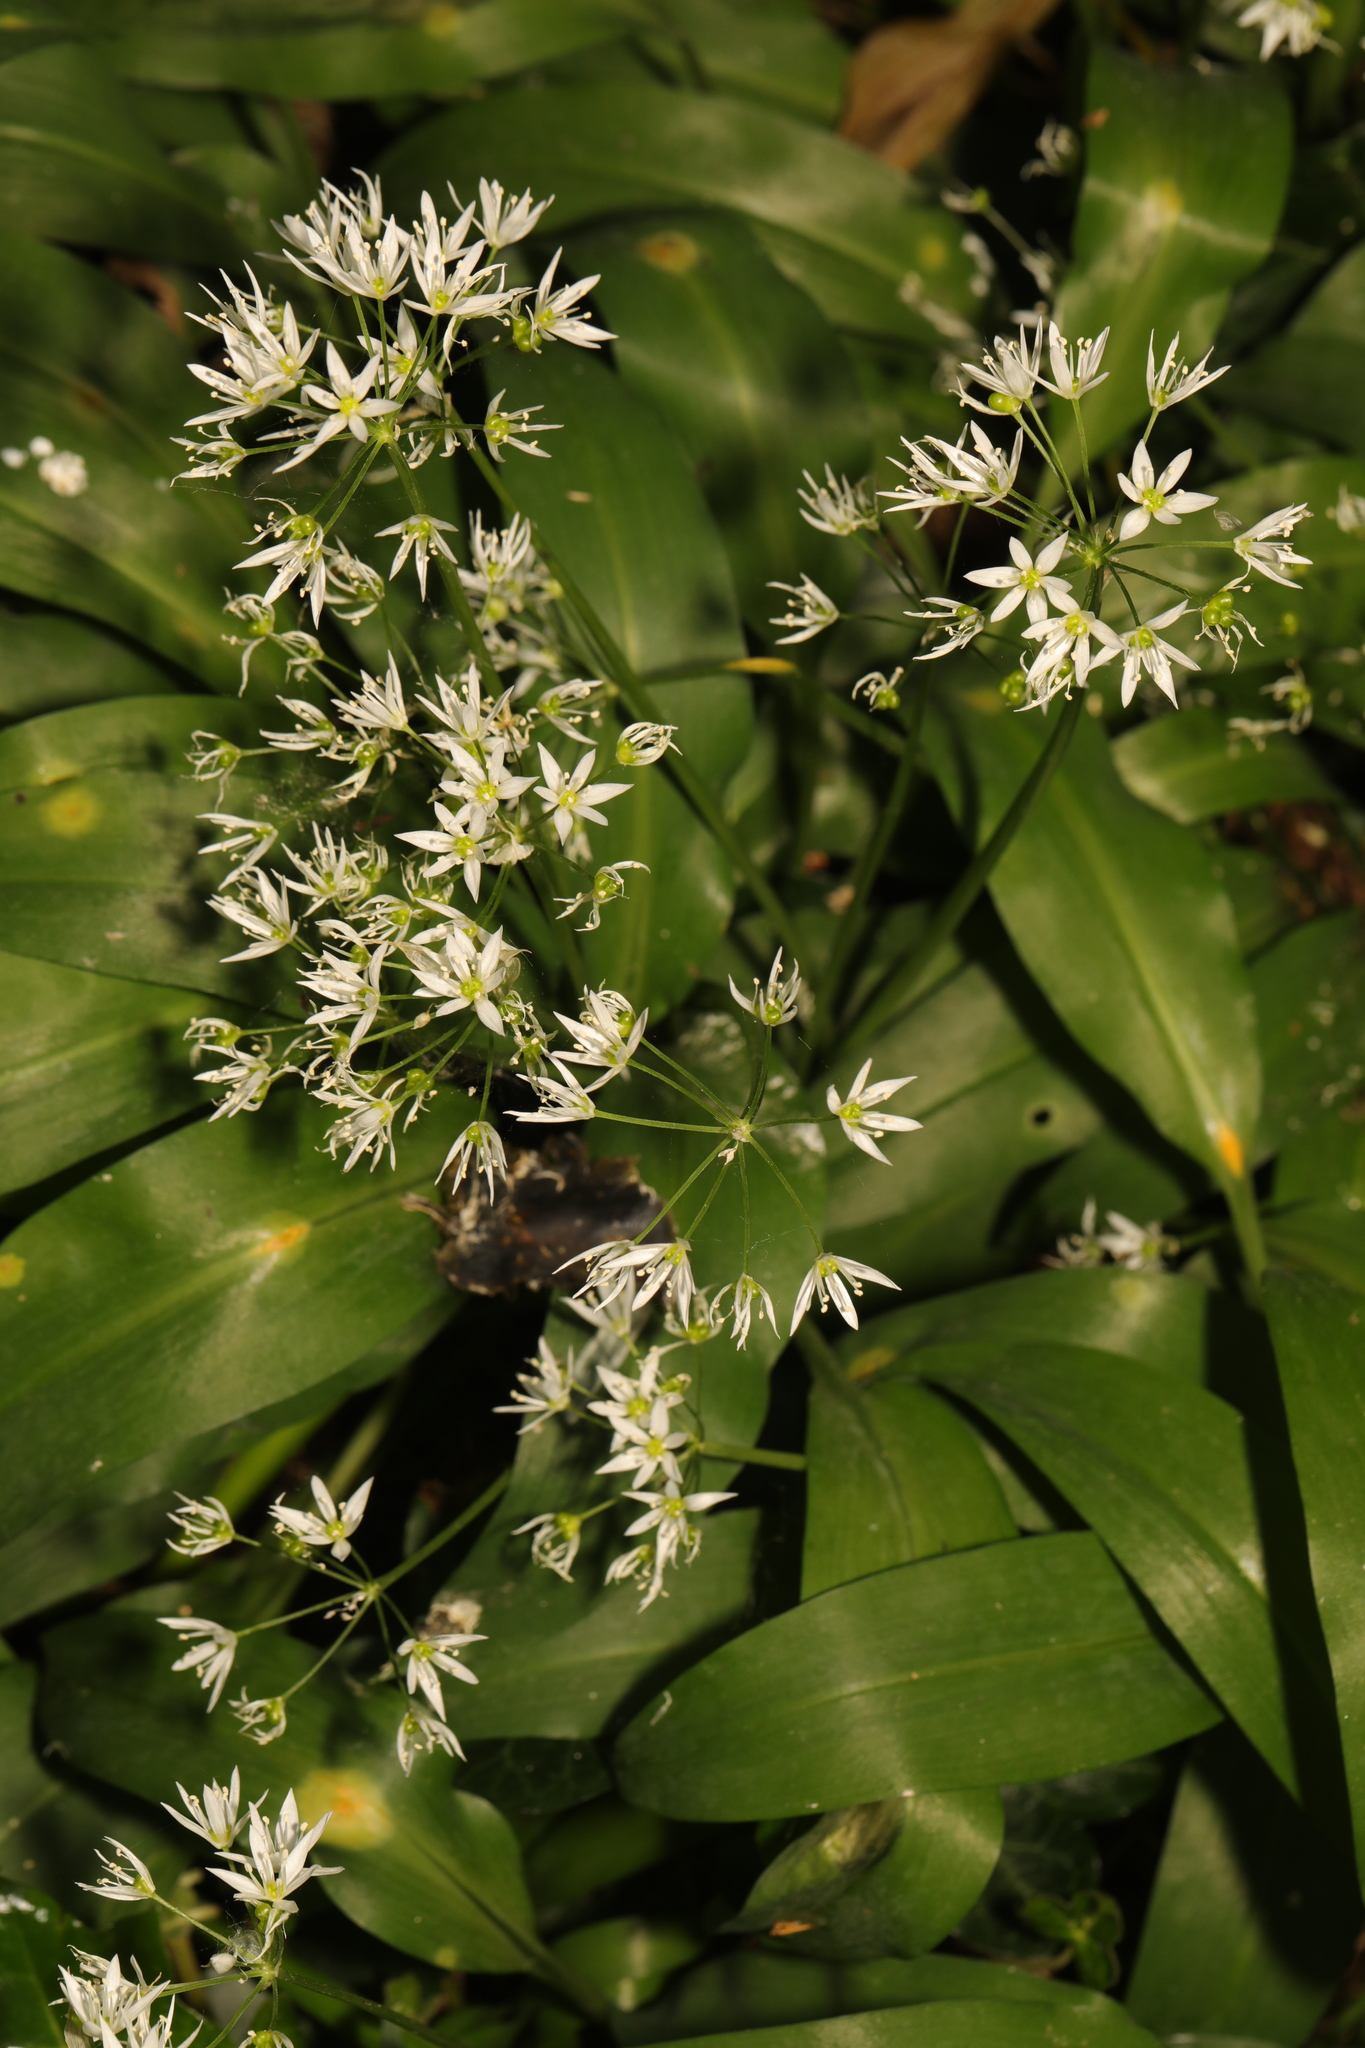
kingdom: Plantae
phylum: Tracheophyta
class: Liliopsida
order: Asparagales
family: Amaryllidaceae
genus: Allium
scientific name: Allium ursinum
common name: Ramsons
